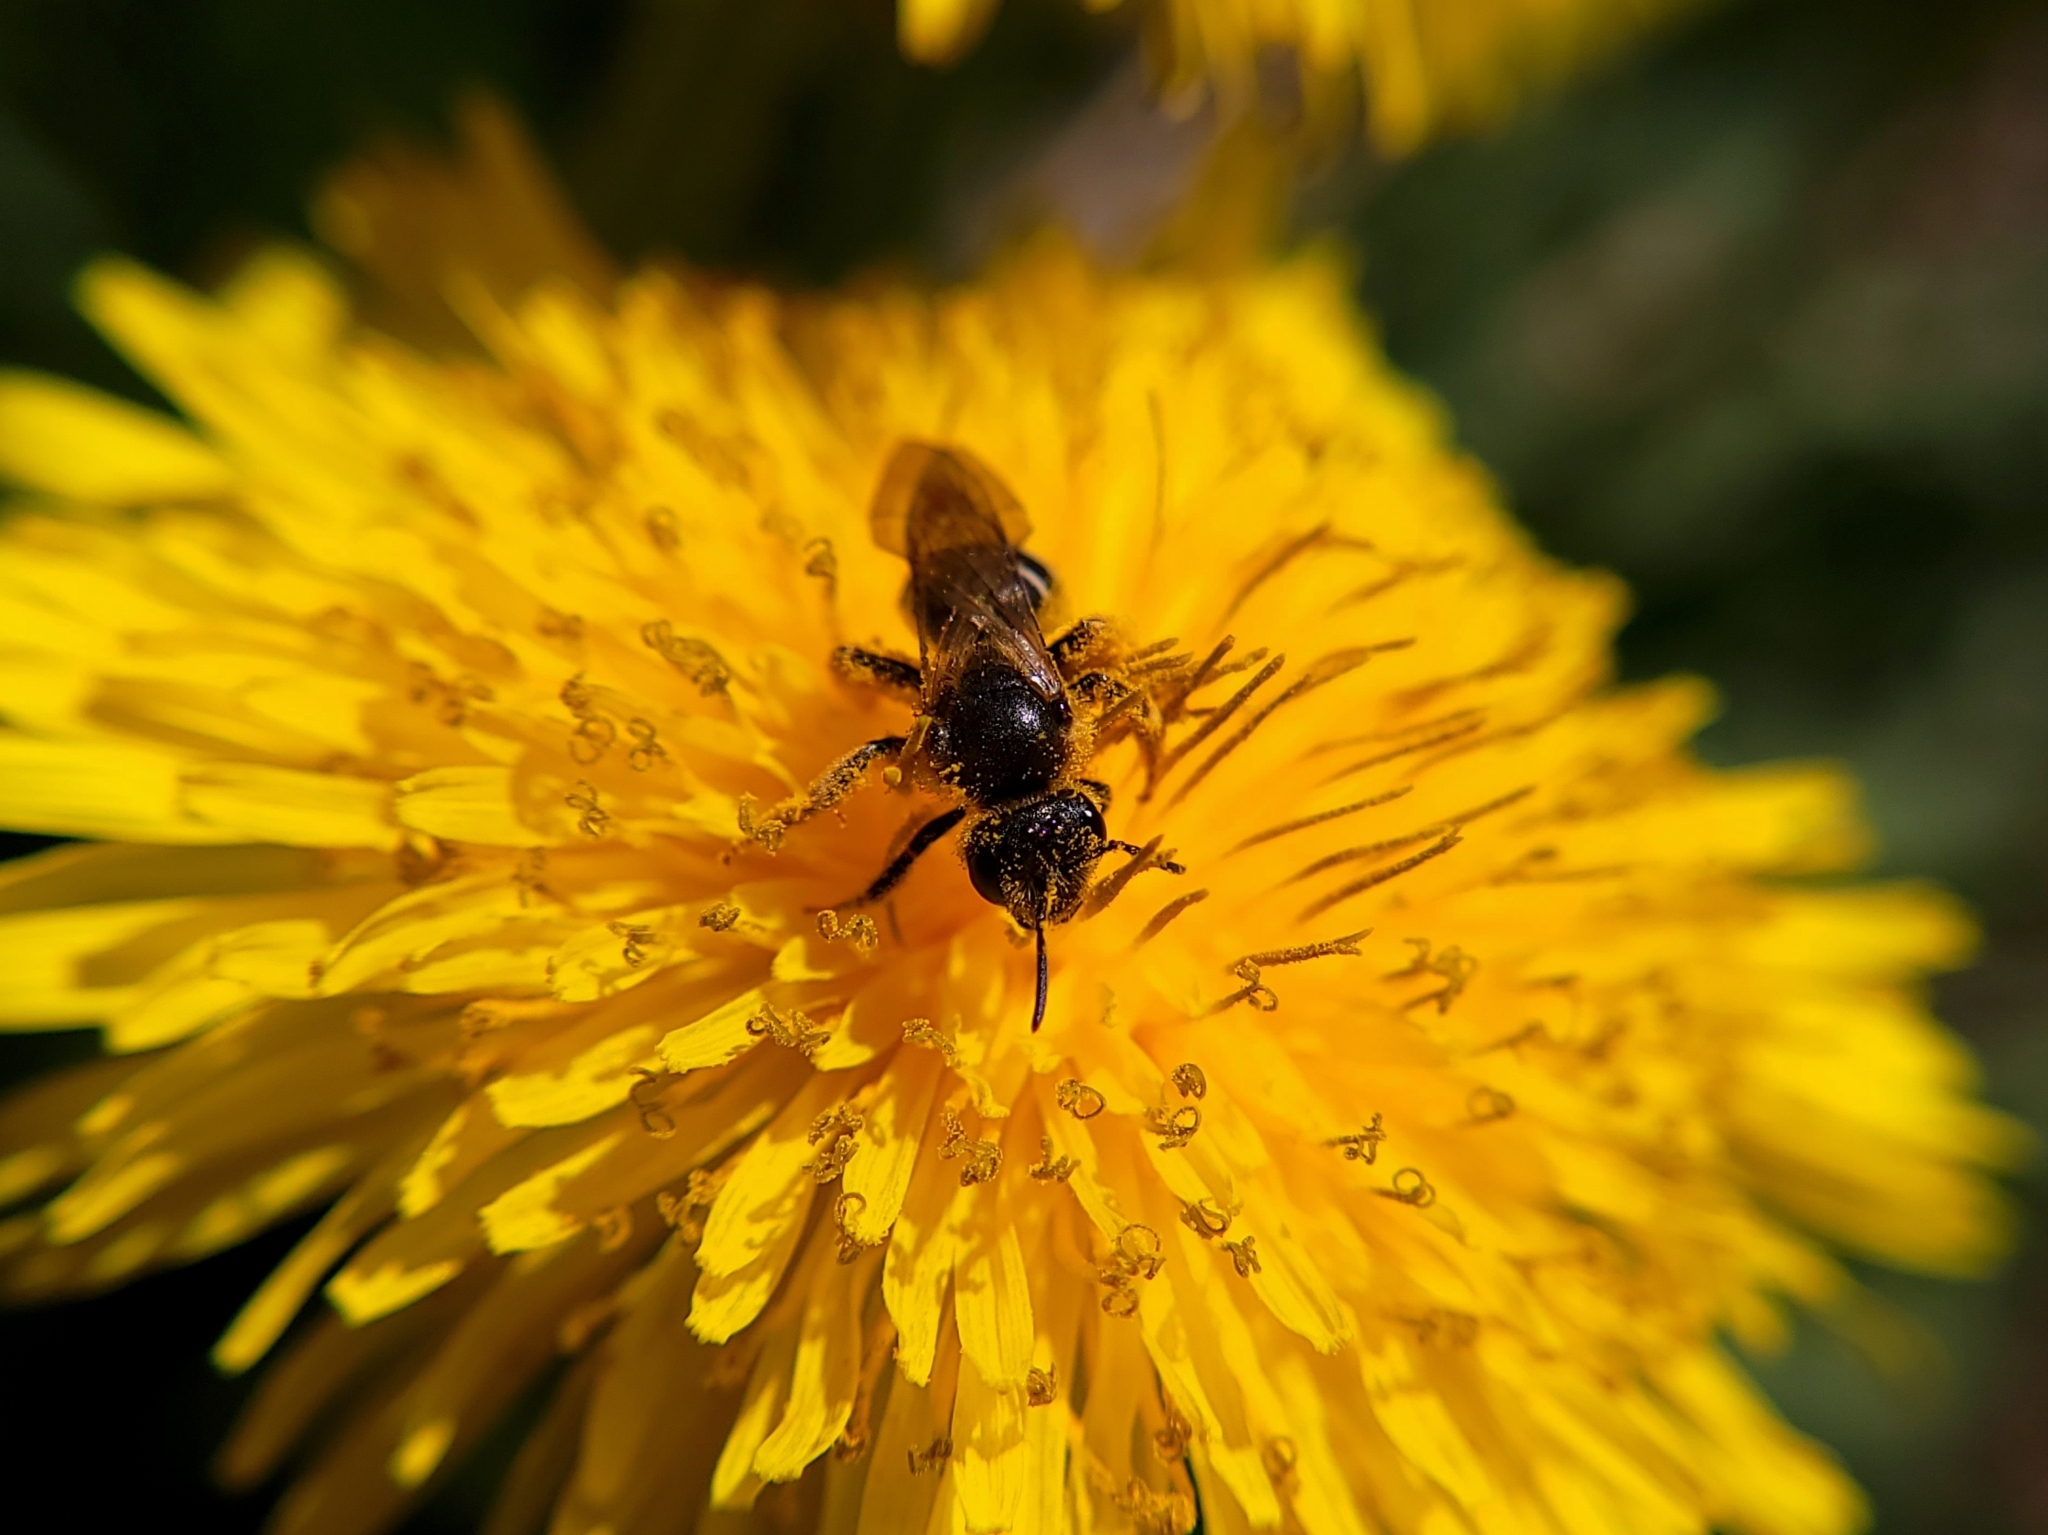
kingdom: Animalia
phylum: Arthropoda
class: Insecta
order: Hymenoptera
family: Halictidae
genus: Halictus
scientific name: Halictus rubicundus
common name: Orange-legged furrow bee
